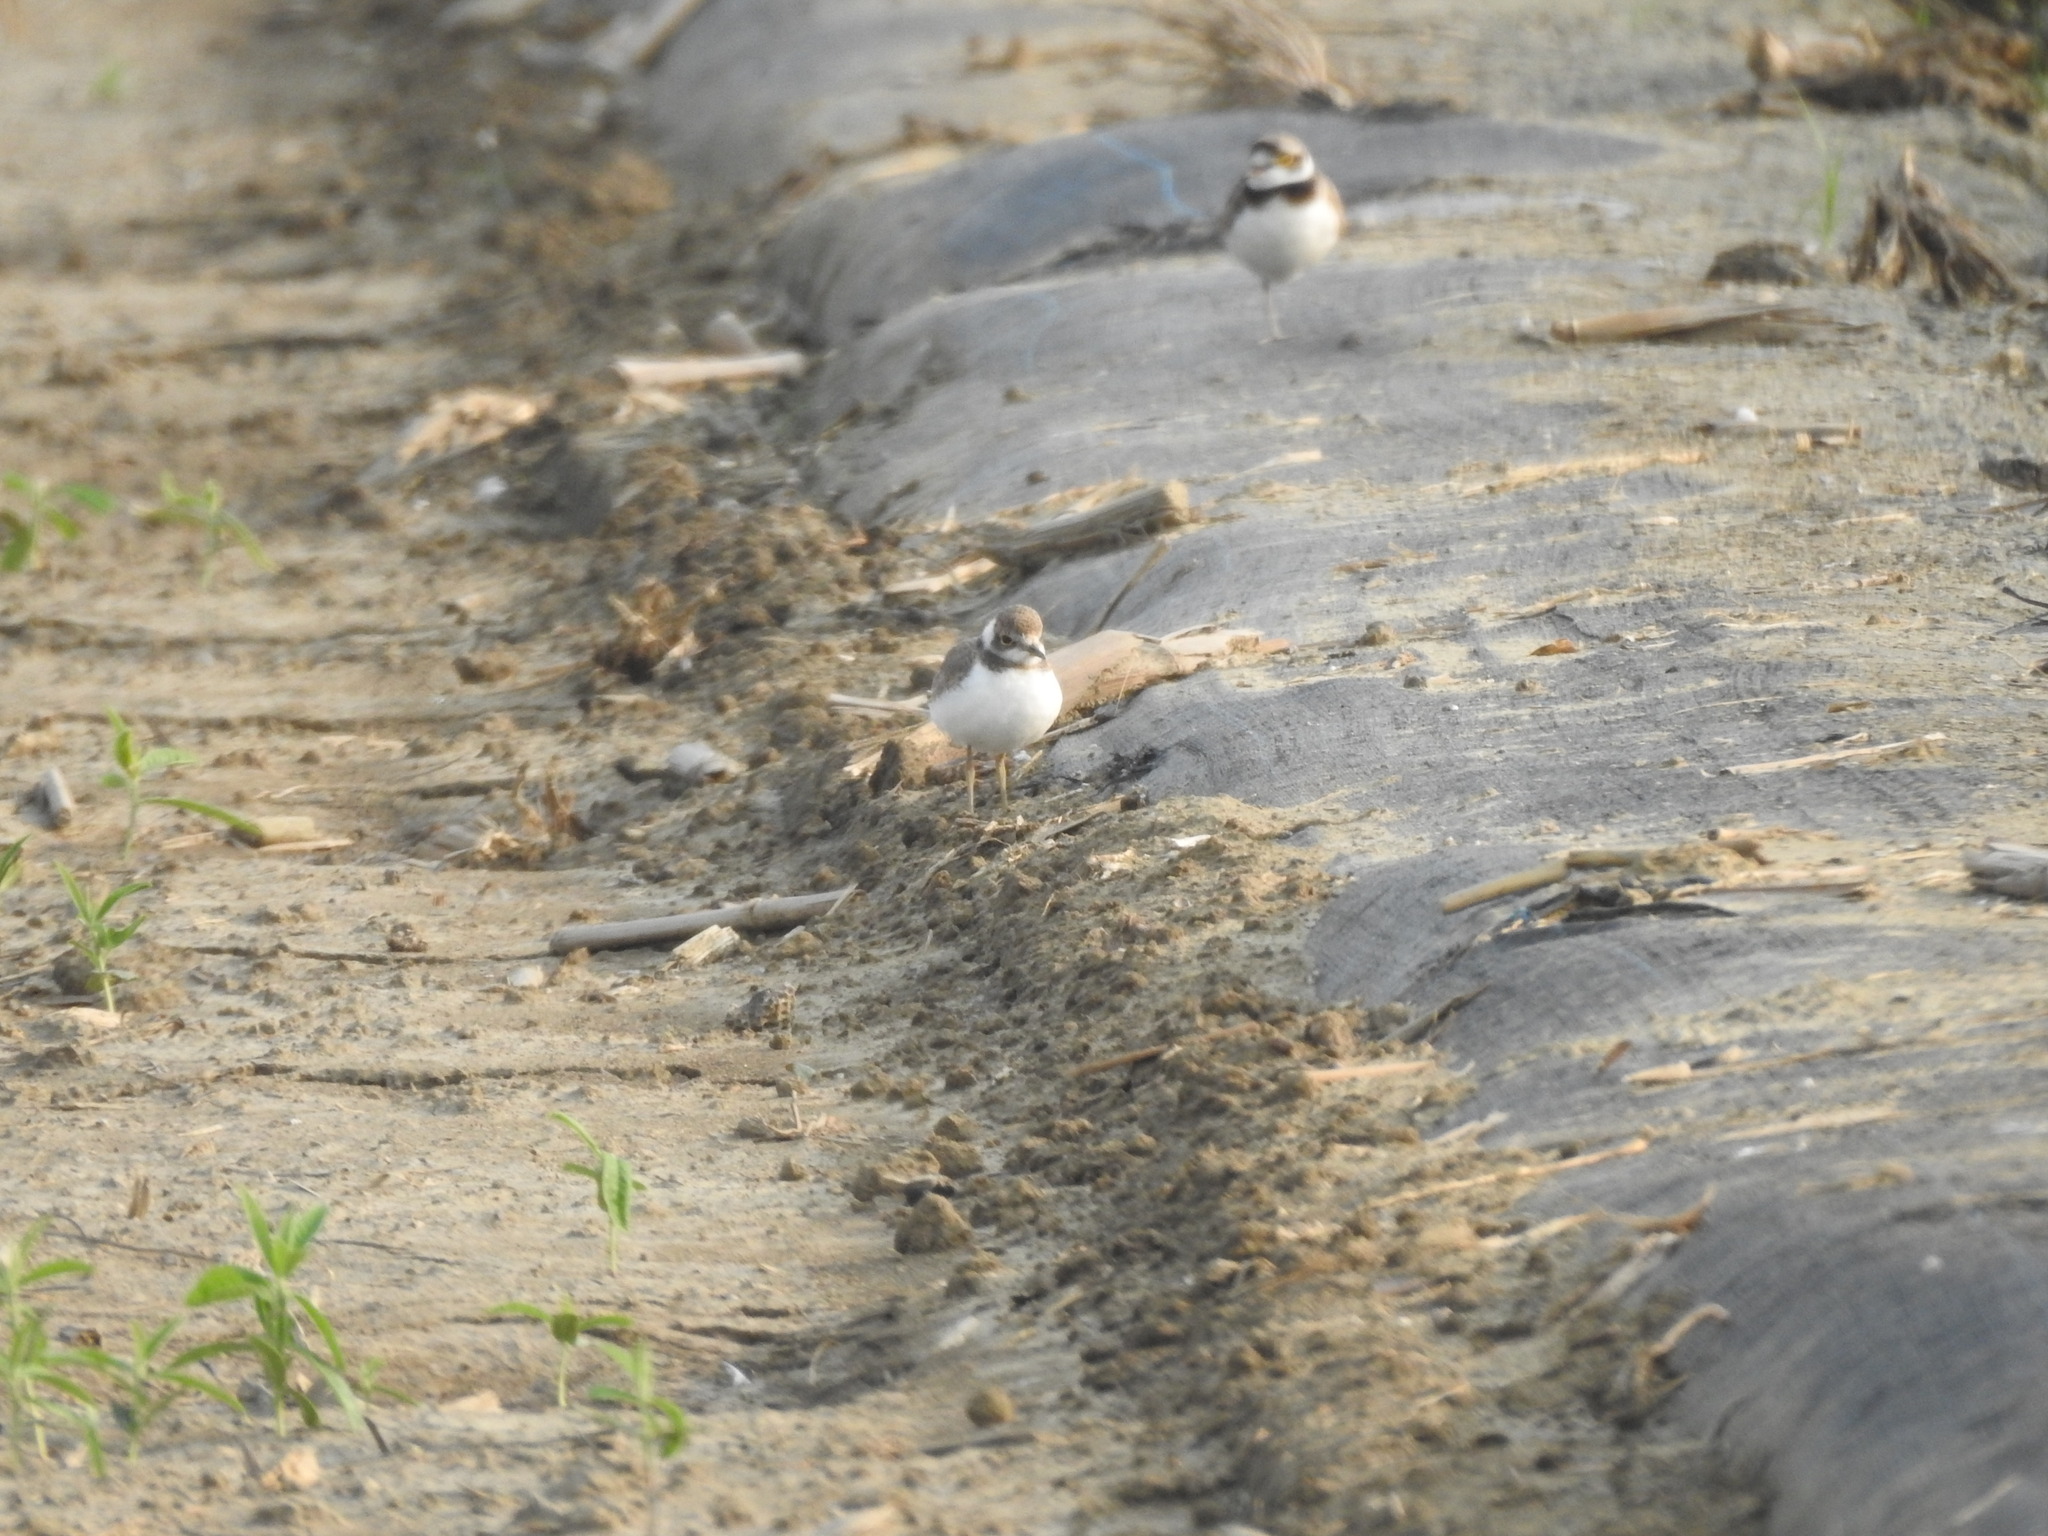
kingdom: Animalia
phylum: Chordata
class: Aves
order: Charadriiformes
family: Charadriidae
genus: Charadrius
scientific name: Charadrius dubius
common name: Little ringed plover
